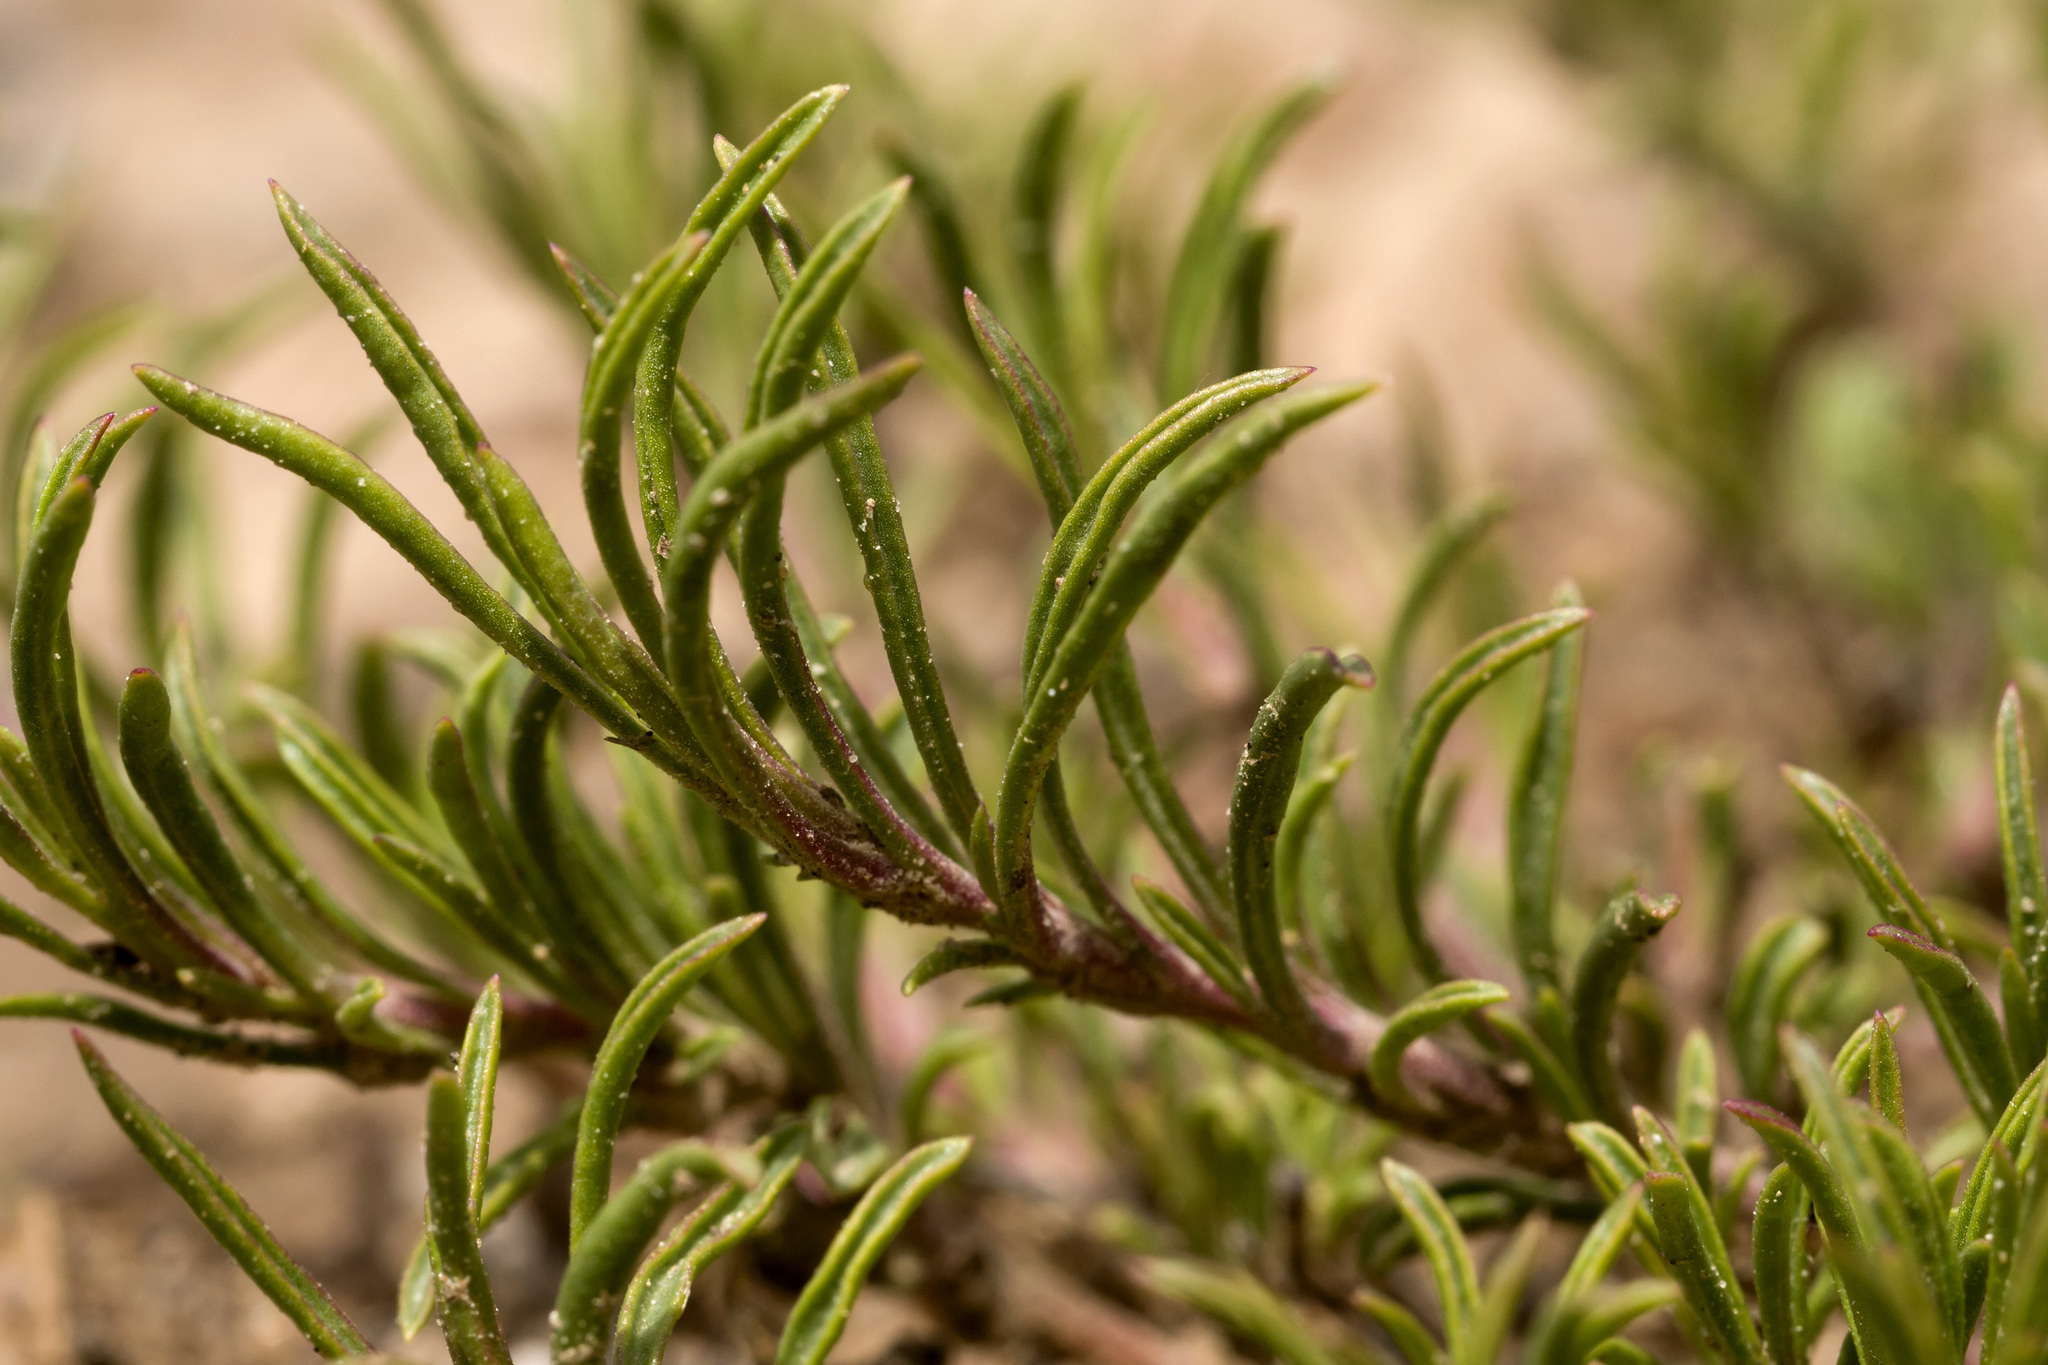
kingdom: Plantae
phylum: Tracheophyta
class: Magnoliopsida
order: Lamiales
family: Plantaginaceae
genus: Penstemon
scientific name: Penstemon crandallii
